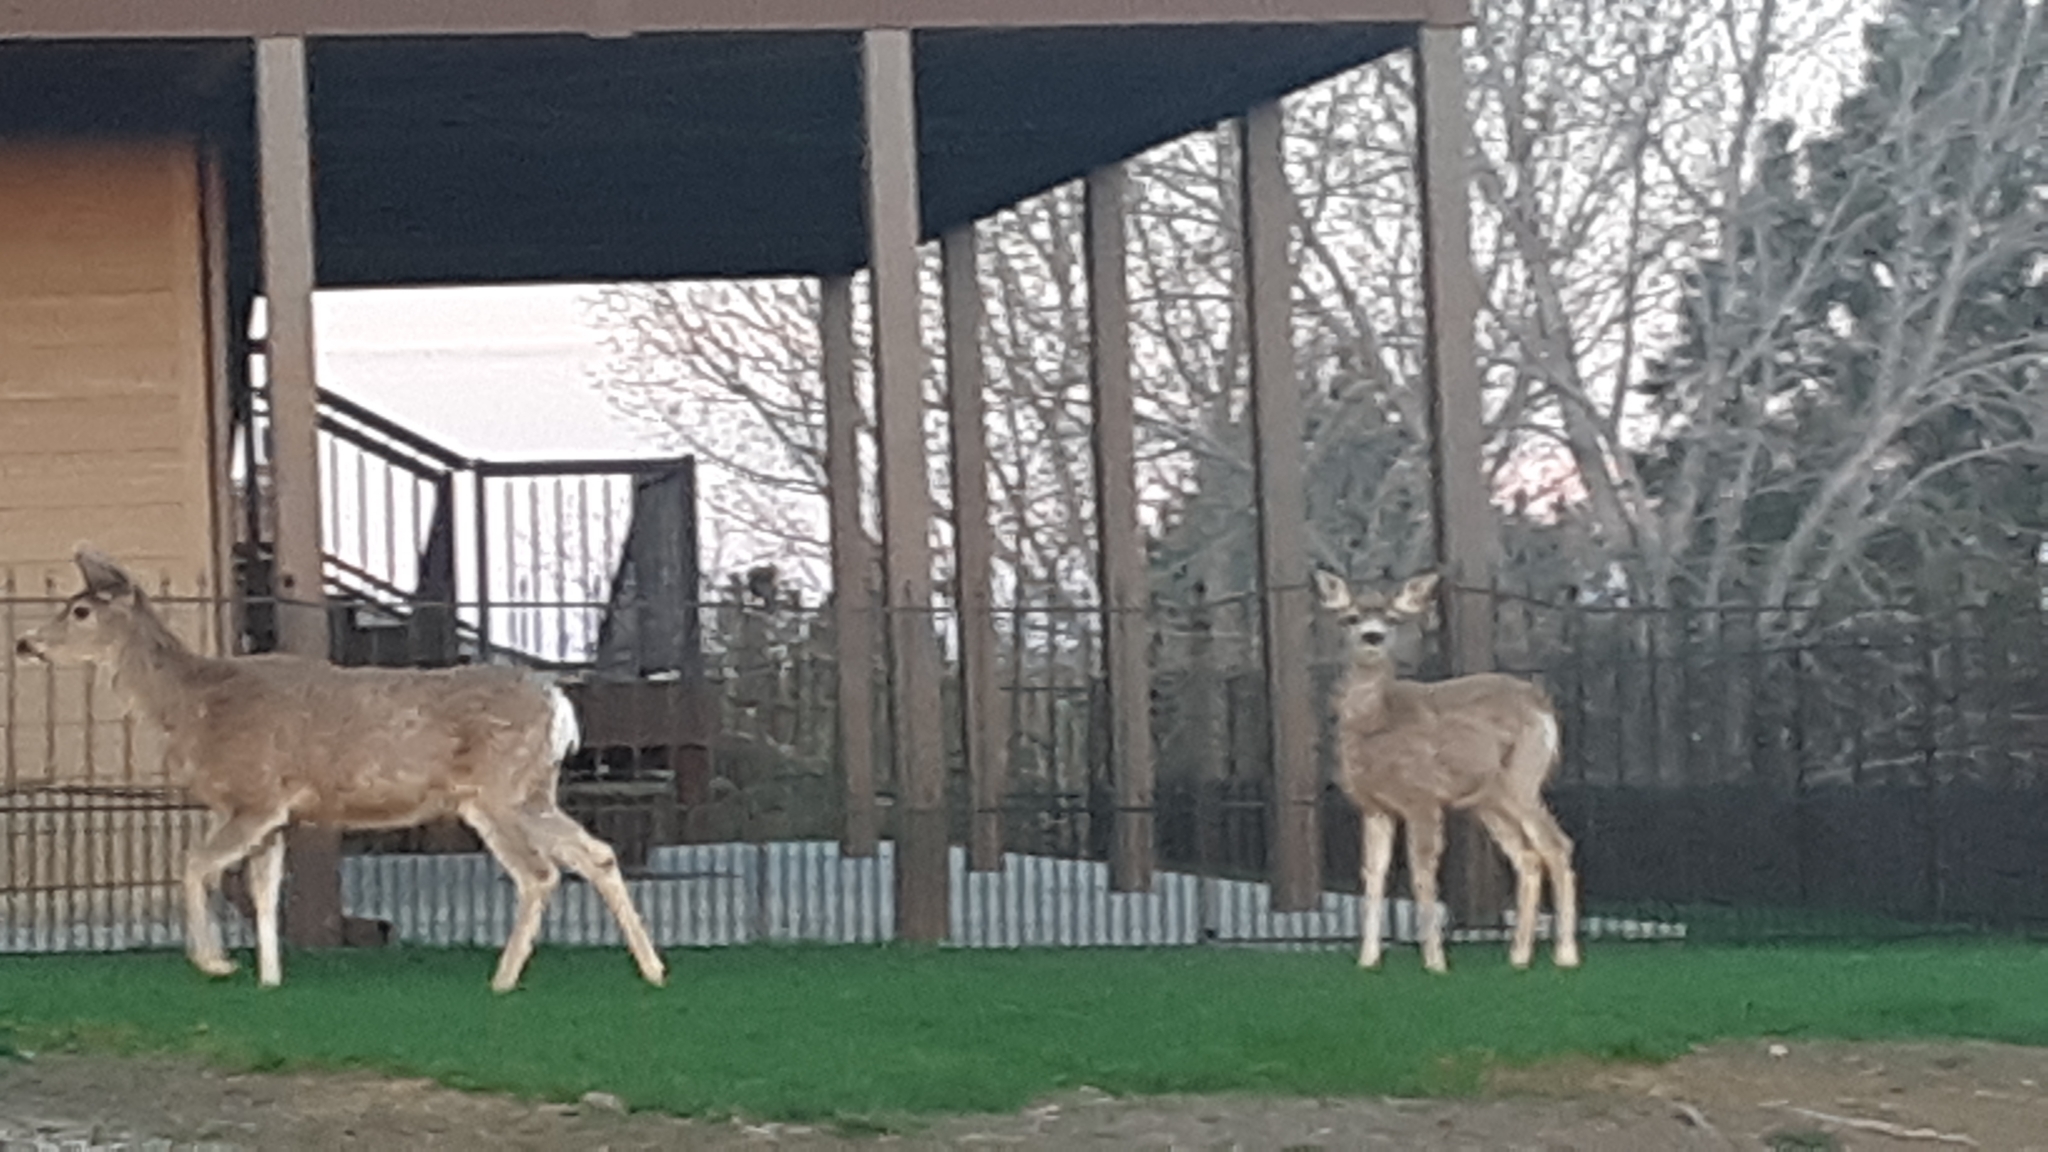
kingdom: Animalia
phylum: Chordata
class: Mammalia
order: Artiodactyla
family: Cervidae
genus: Odocoileus
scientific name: Odocoileus hemionus
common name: Mule deer
